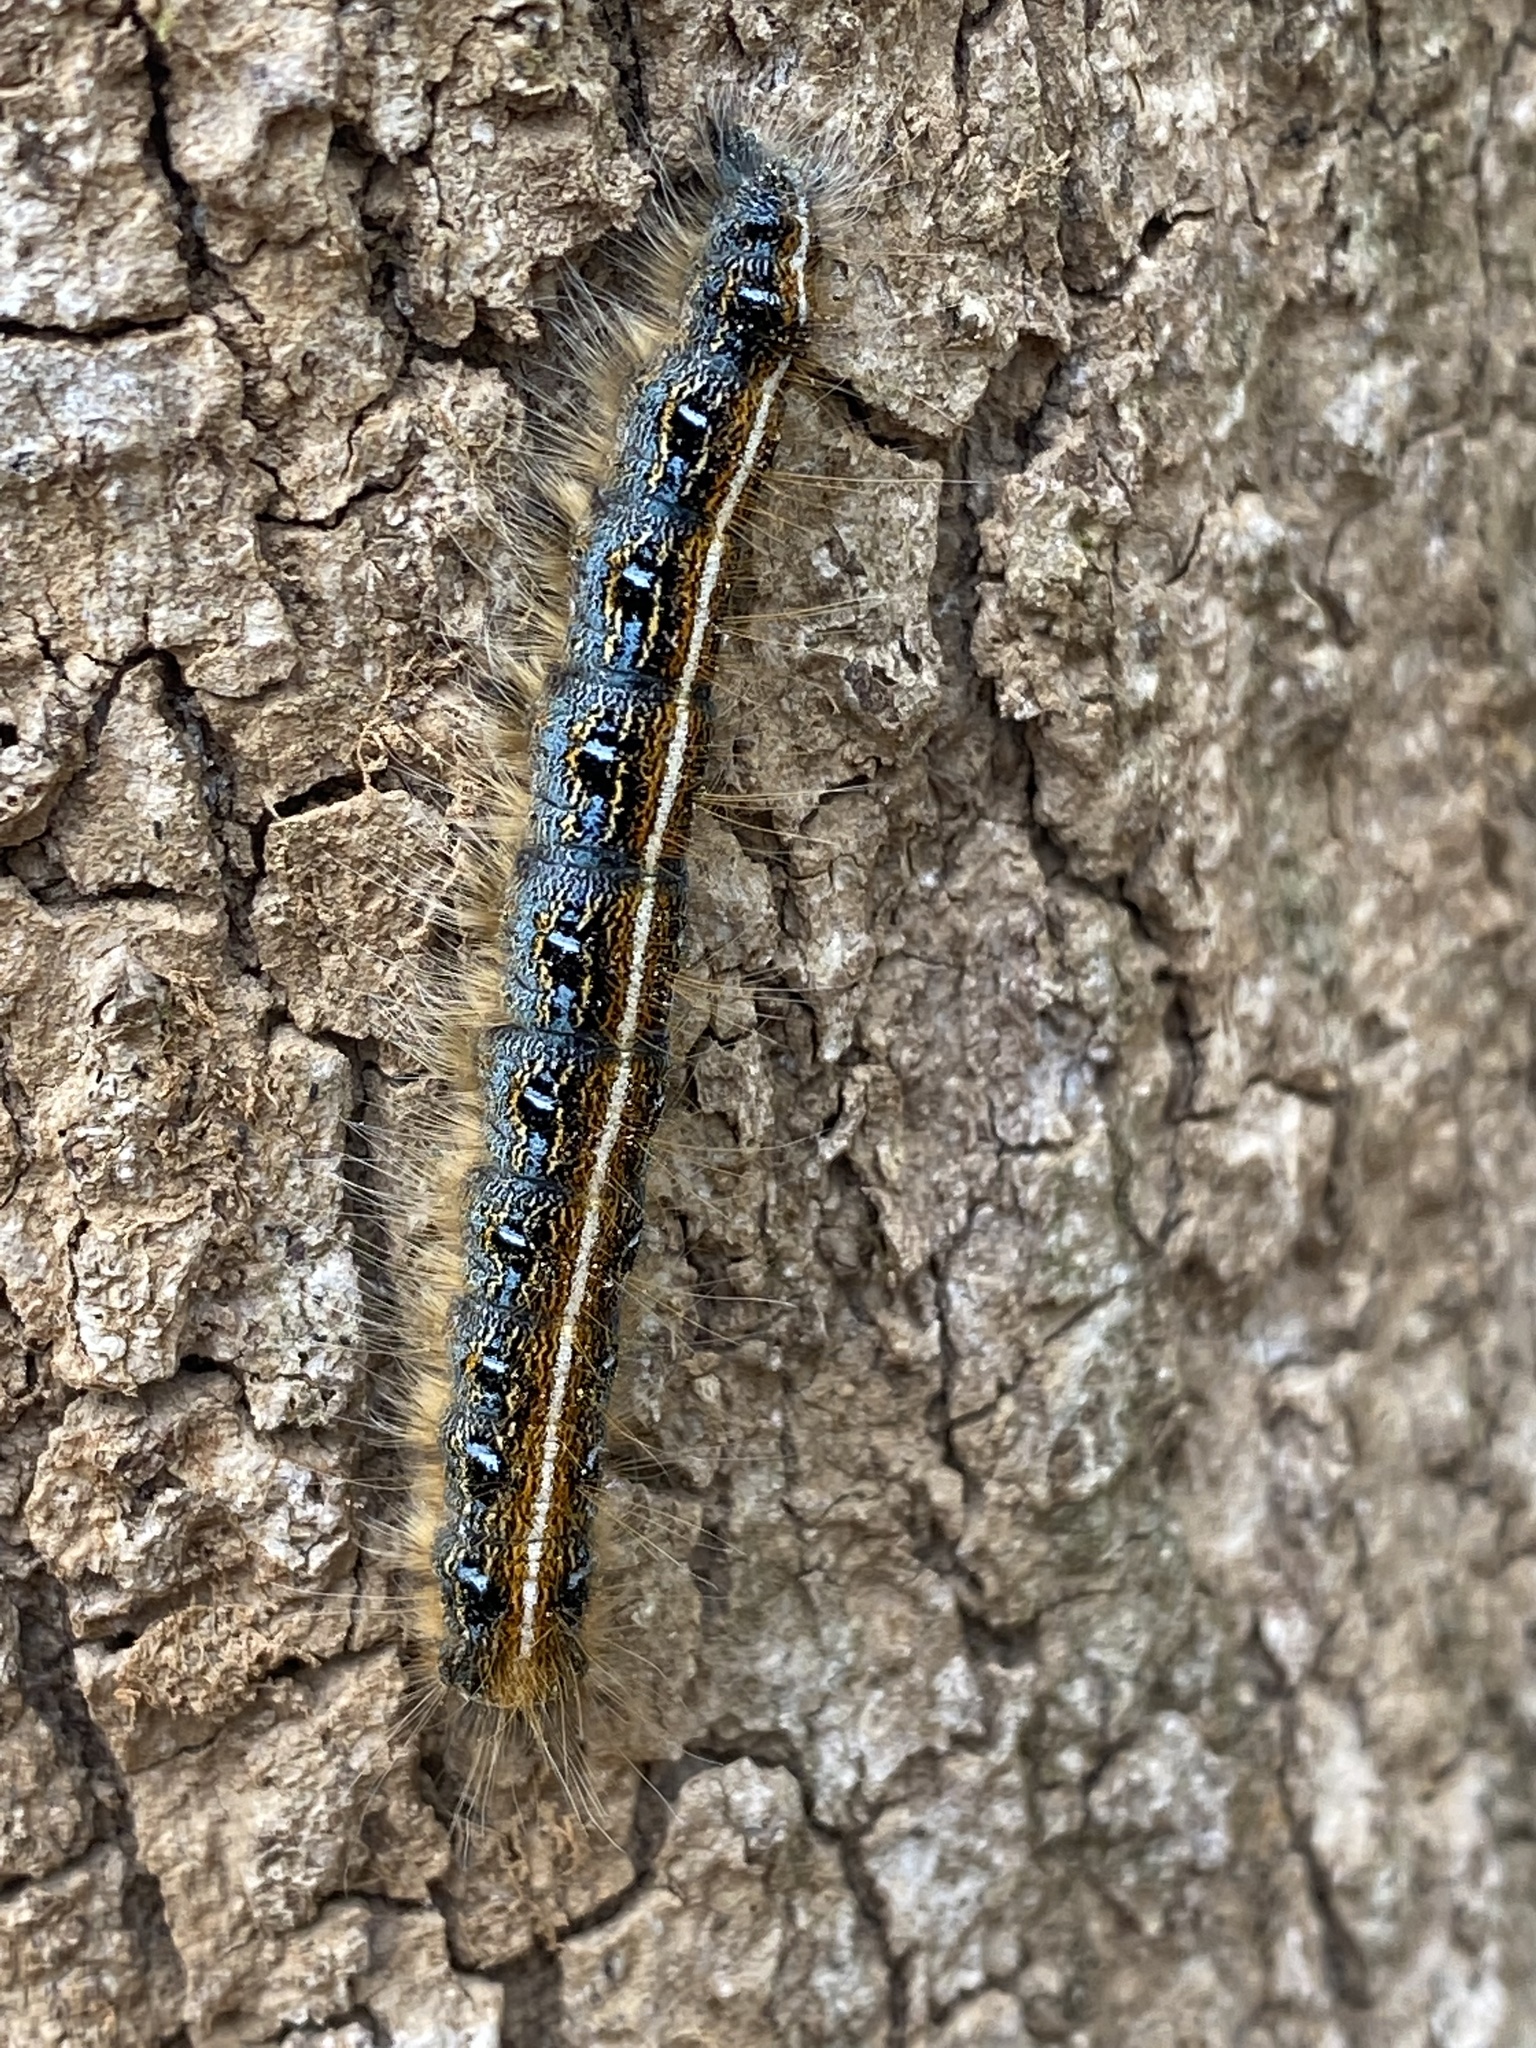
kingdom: Animalia
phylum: Arthropoda
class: Insecta
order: Lepidoptera
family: Lasiocampidae
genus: Malacosoma
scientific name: Malacosoma americana
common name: Eastern tent caterpillar moth
